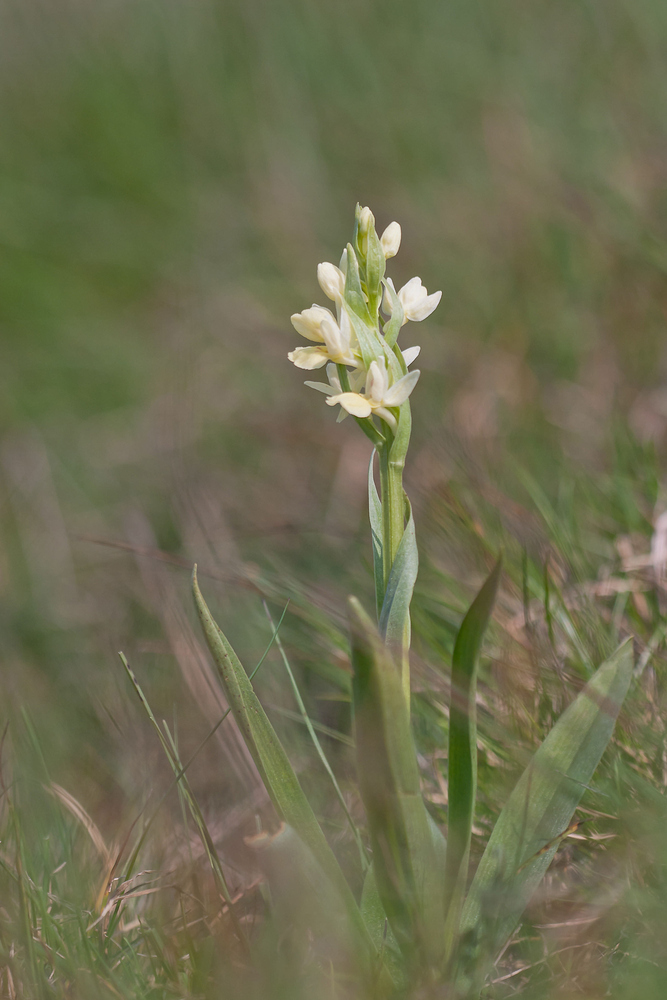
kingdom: Plantae
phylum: Tracheophyta
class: Liliopsida
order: Asparagales
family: Orchidaceae
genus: Dactylorhiza
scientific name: Dactylorhiza insularis
